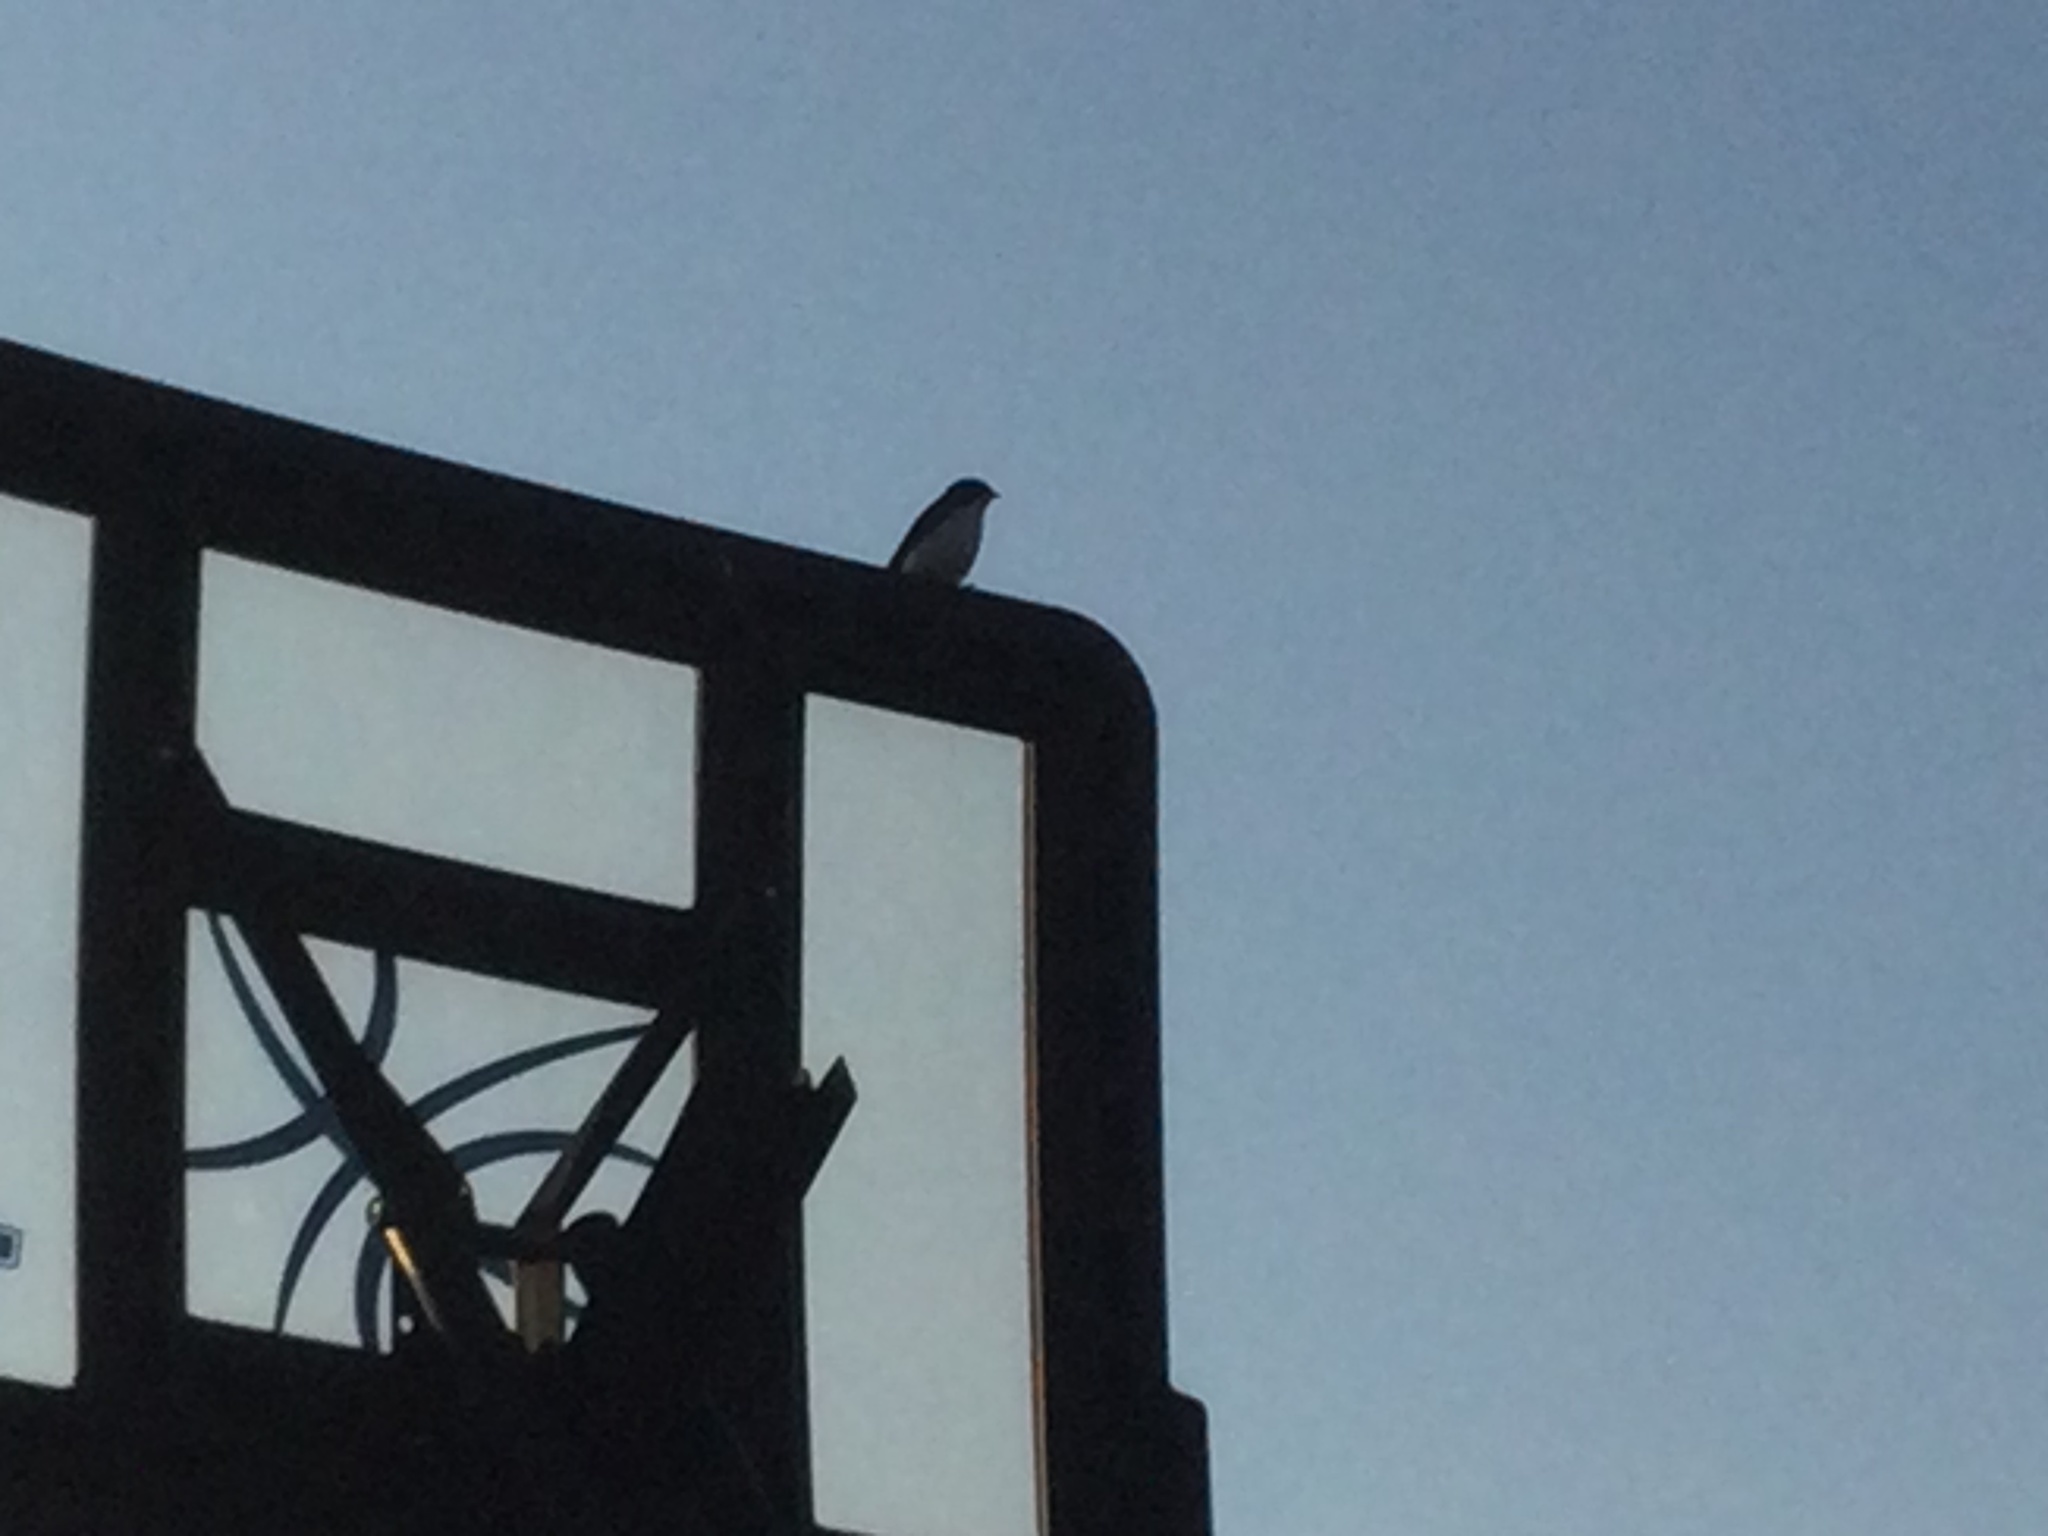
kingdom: Animalia
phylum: Chordata
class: Aves
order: Passeriformes
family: Hirundinidae
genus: Tachycineta
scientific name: Tachycineta bicolor
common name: Tree swallow
